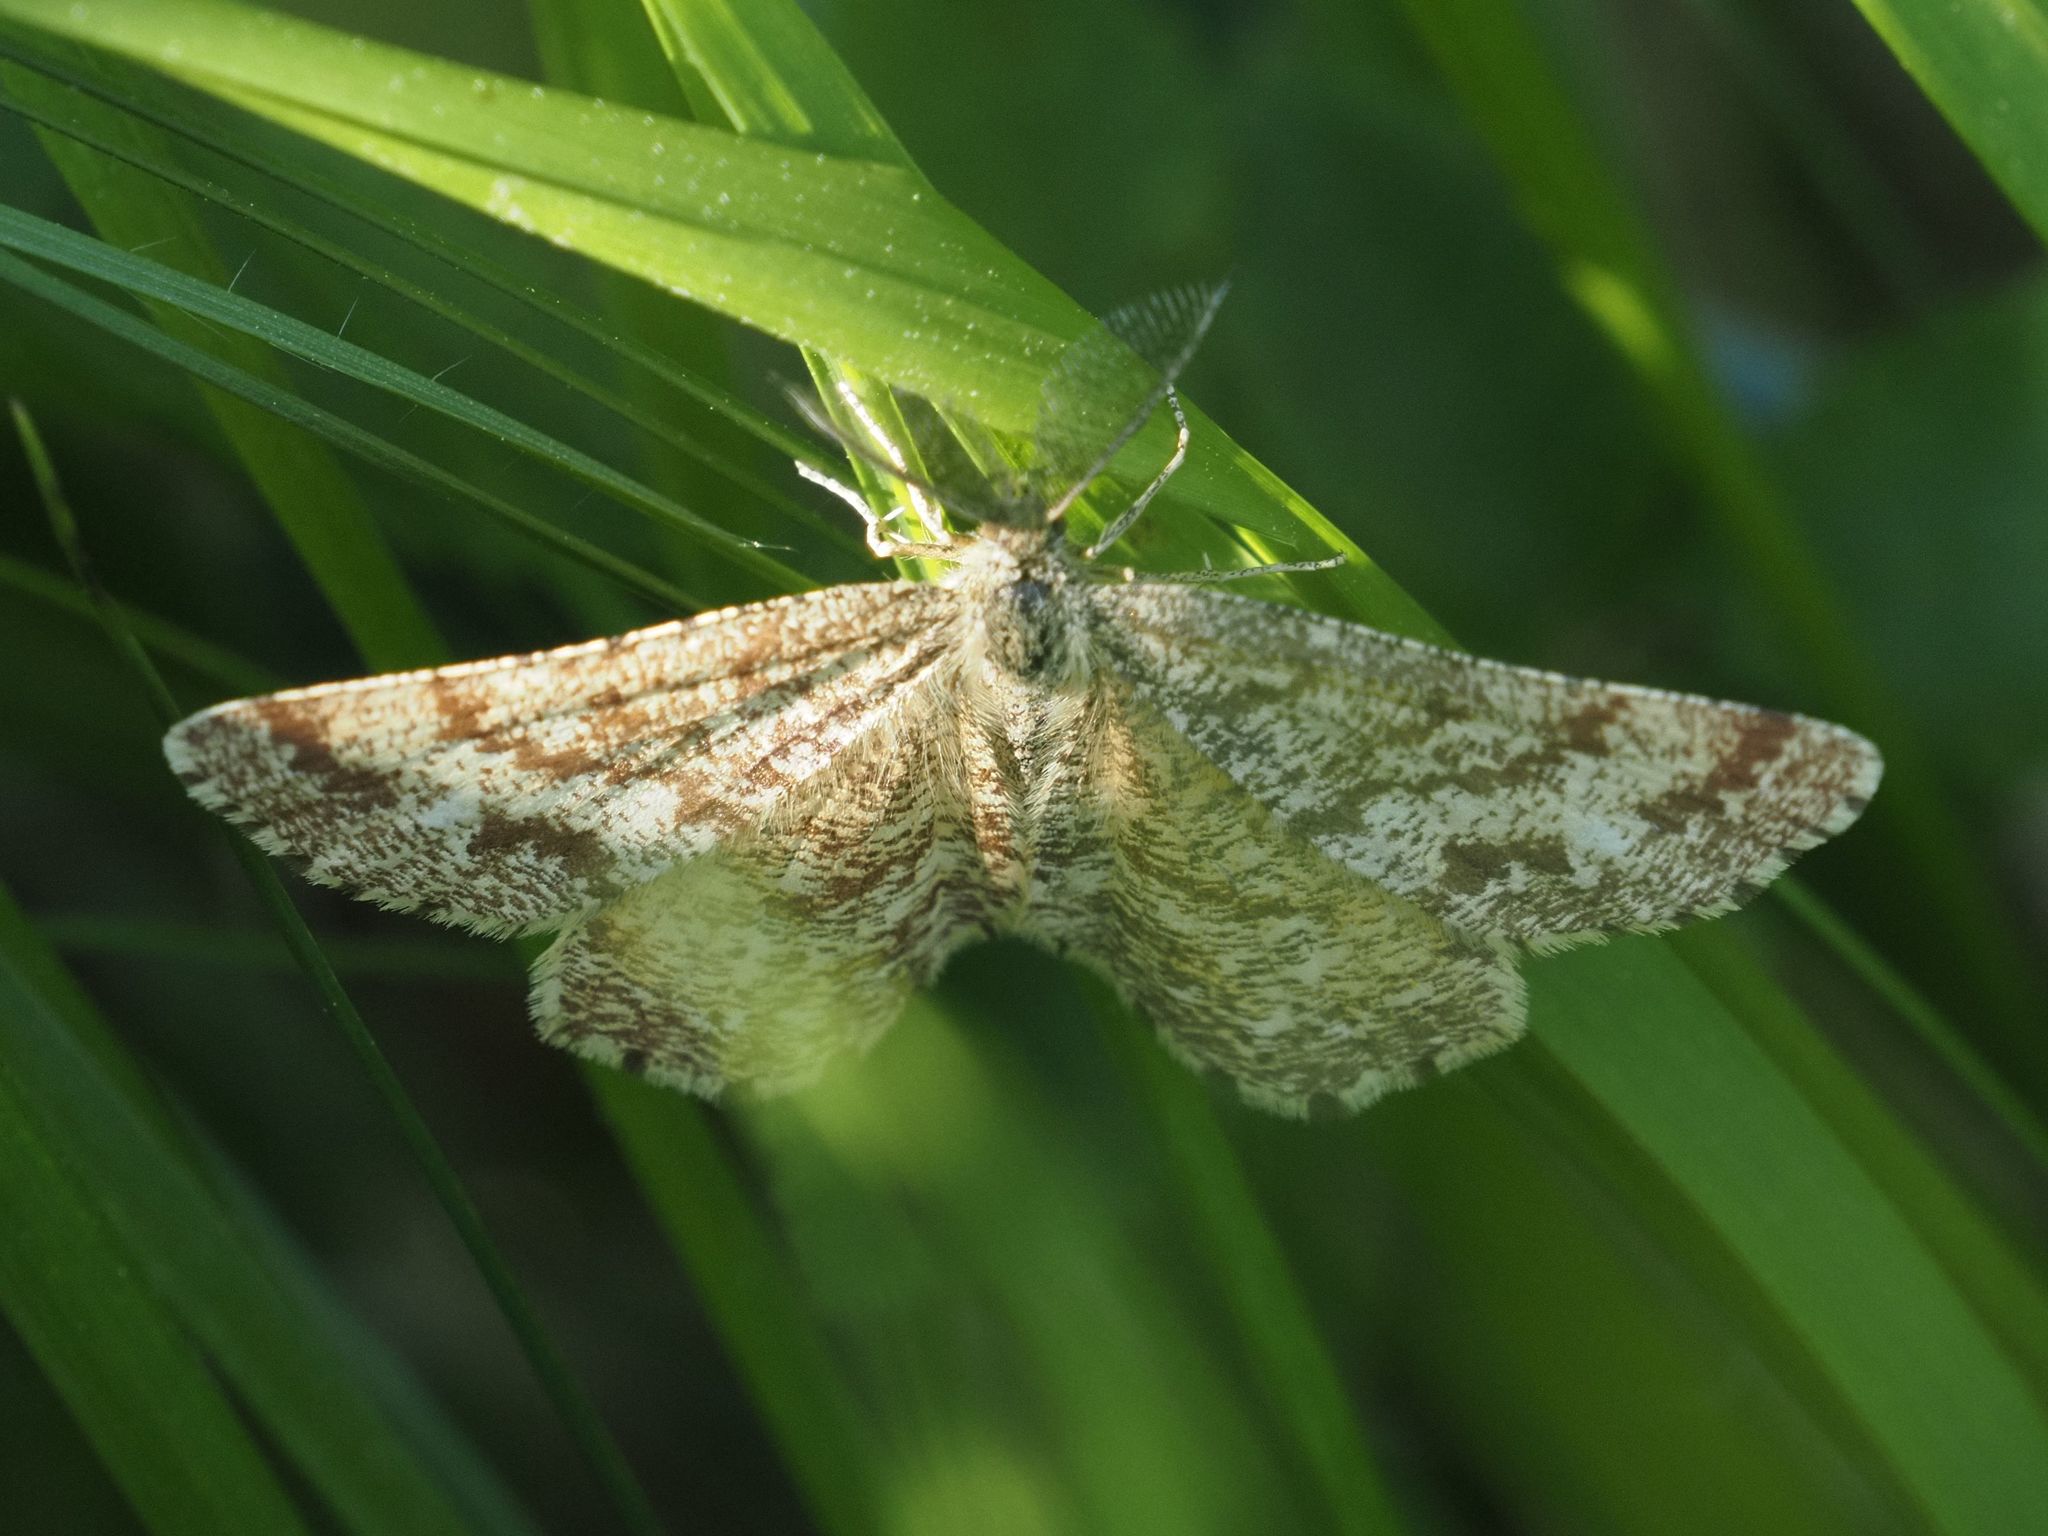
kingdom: Animalia
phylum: Arthropoda
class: Insecta
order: Lepidoptera
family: Geometridae
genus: Ematurga
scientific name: Ematurga atomaria
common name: Common heath
